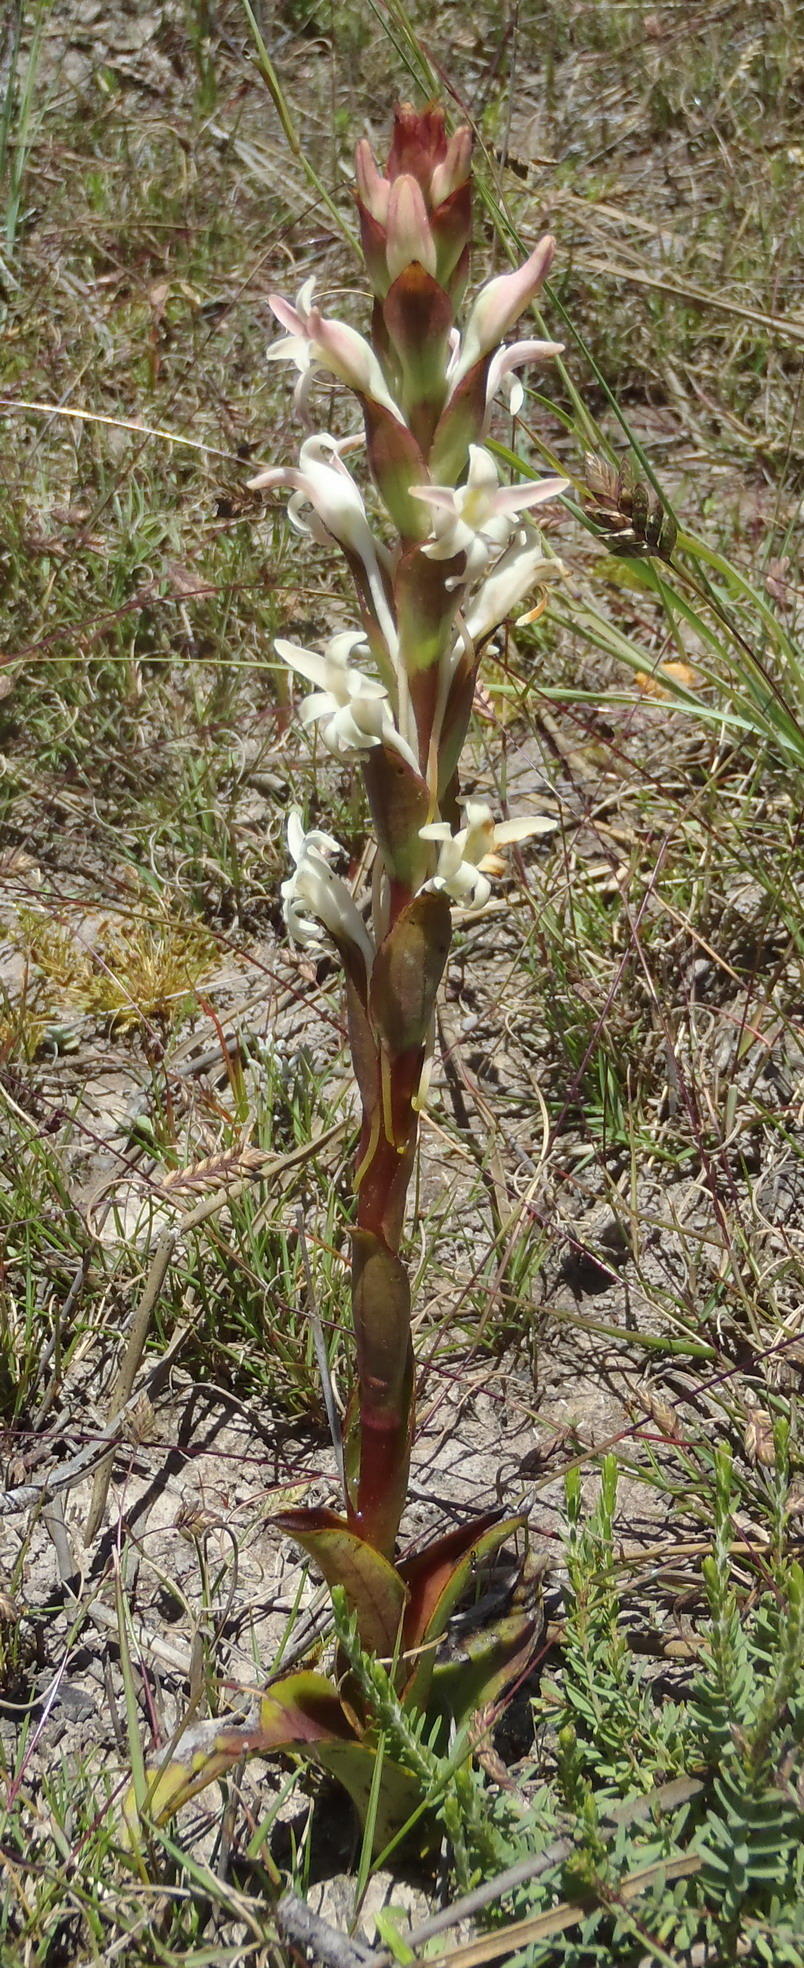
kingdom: Plantae
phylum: Tracheophyta
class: Liliopsida
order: Asparagales
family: Orchidaceae
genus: Satyrium
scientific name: Satyrium stenopetalum
